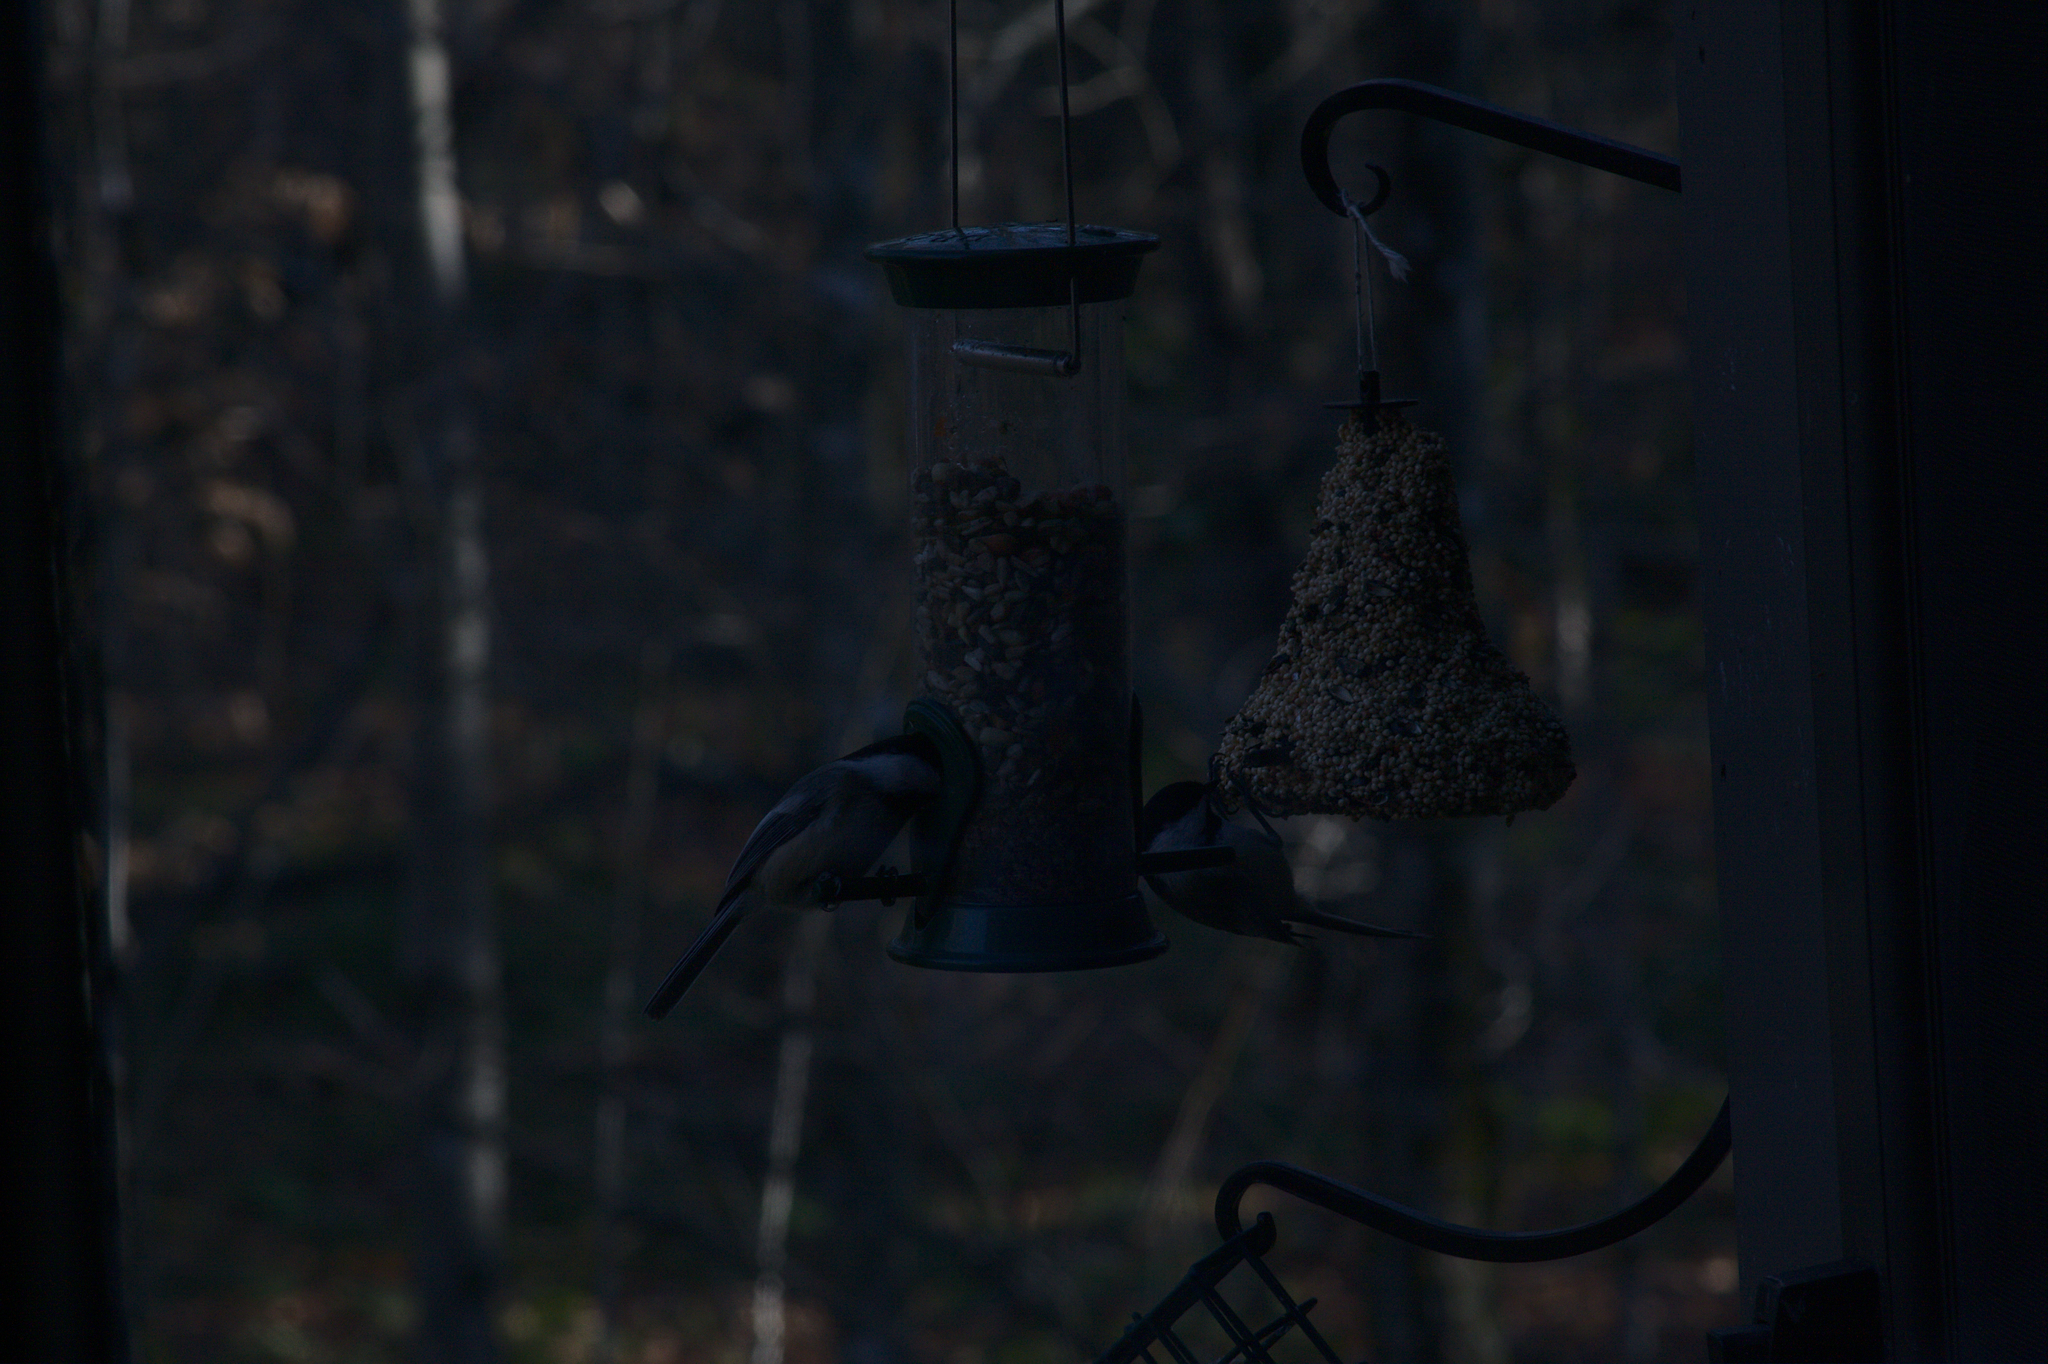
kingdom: Animalia
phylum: Chordata
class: Aves
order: Passeriformes
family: Paridae
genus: Poecile
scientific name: Poecile atricapillus
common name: Black-capped chickadee
